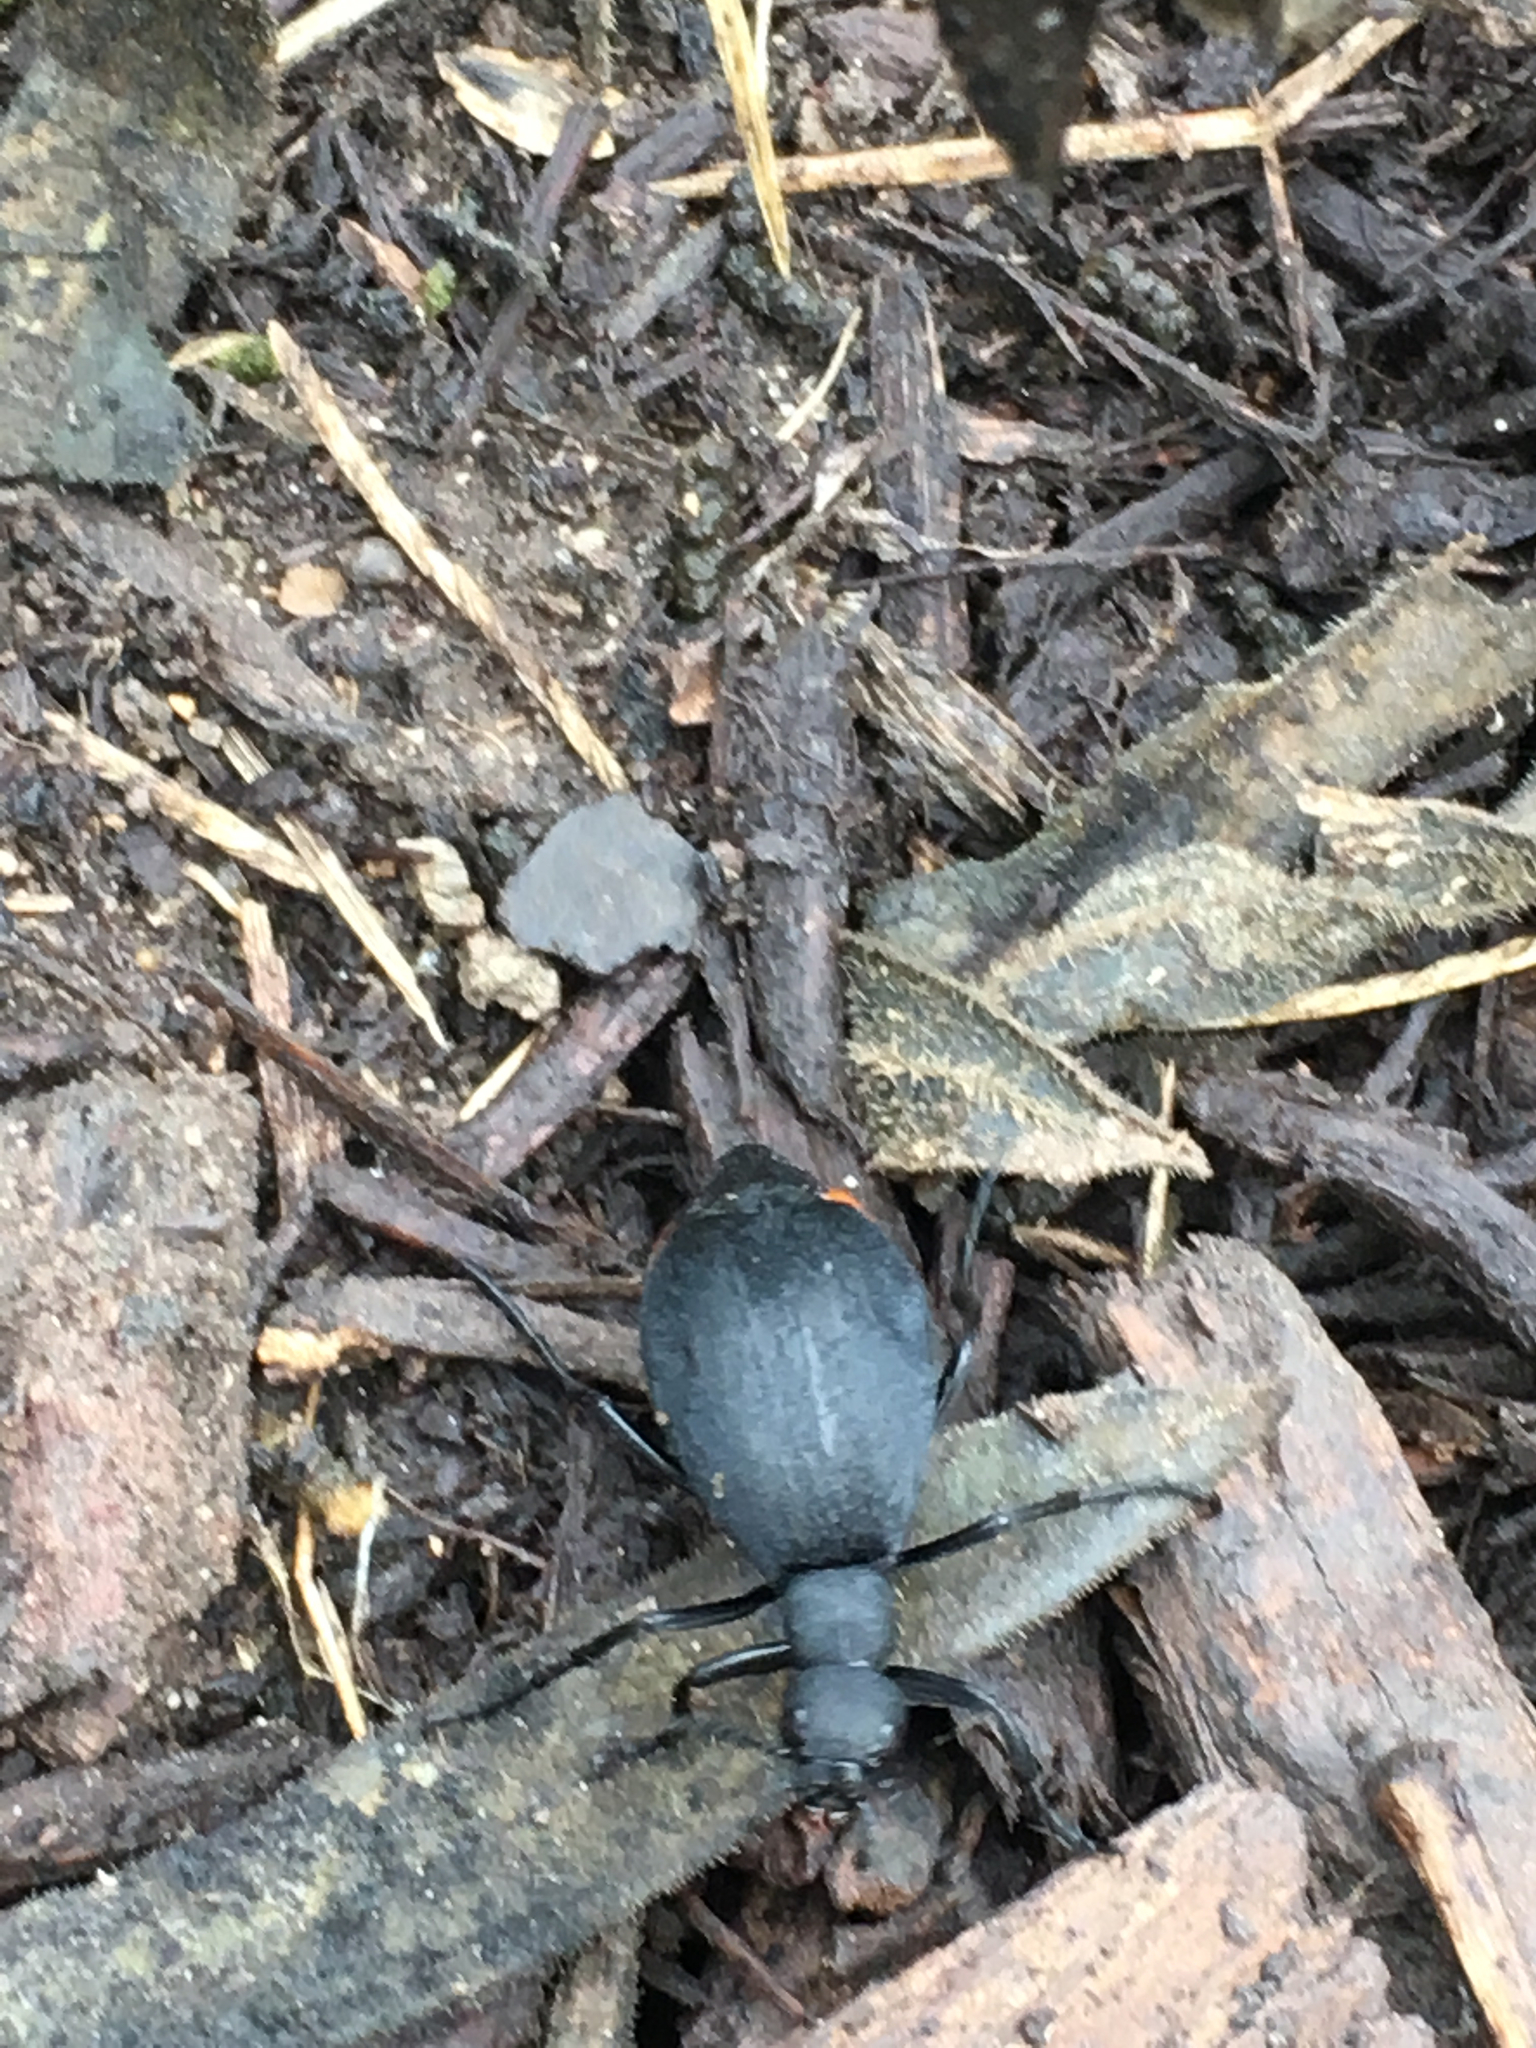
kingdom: Animalia
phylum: Arthropoda
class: Insecta
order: Coleoptera
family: Meloidae
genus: Epicauta
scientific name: Epicauta conferta
